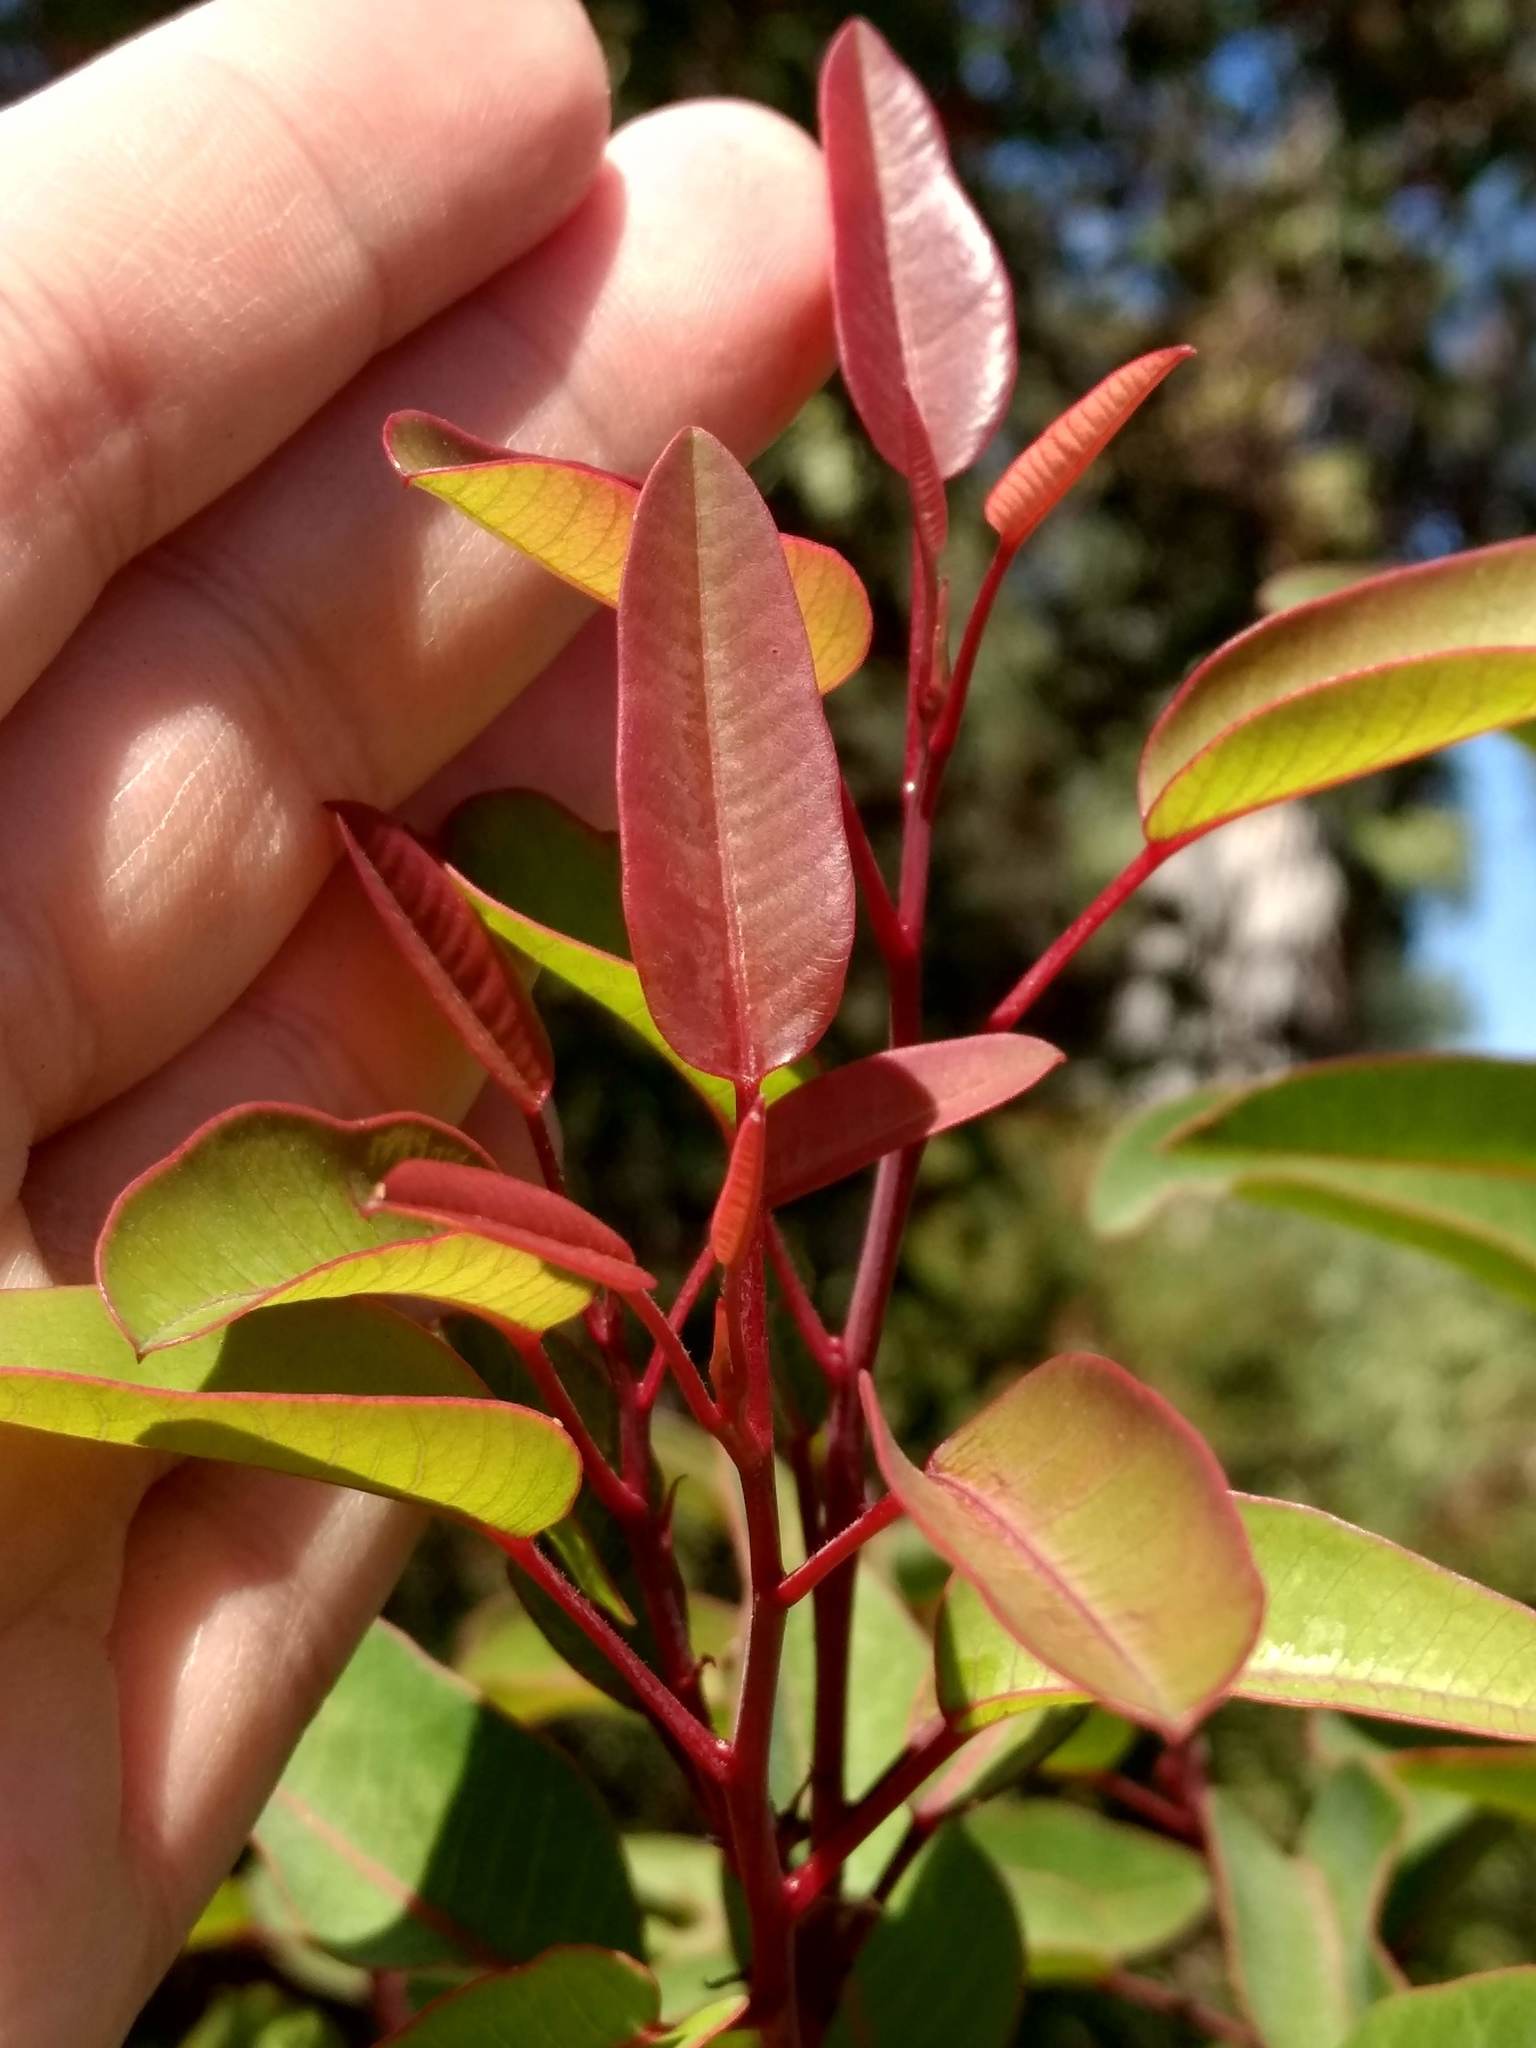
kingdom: Plantae
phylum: Tracheophyta
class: Magnoliopsida
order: Sapindales
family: Anacardiaceae
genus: Malosma
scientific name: Malosma laurina
